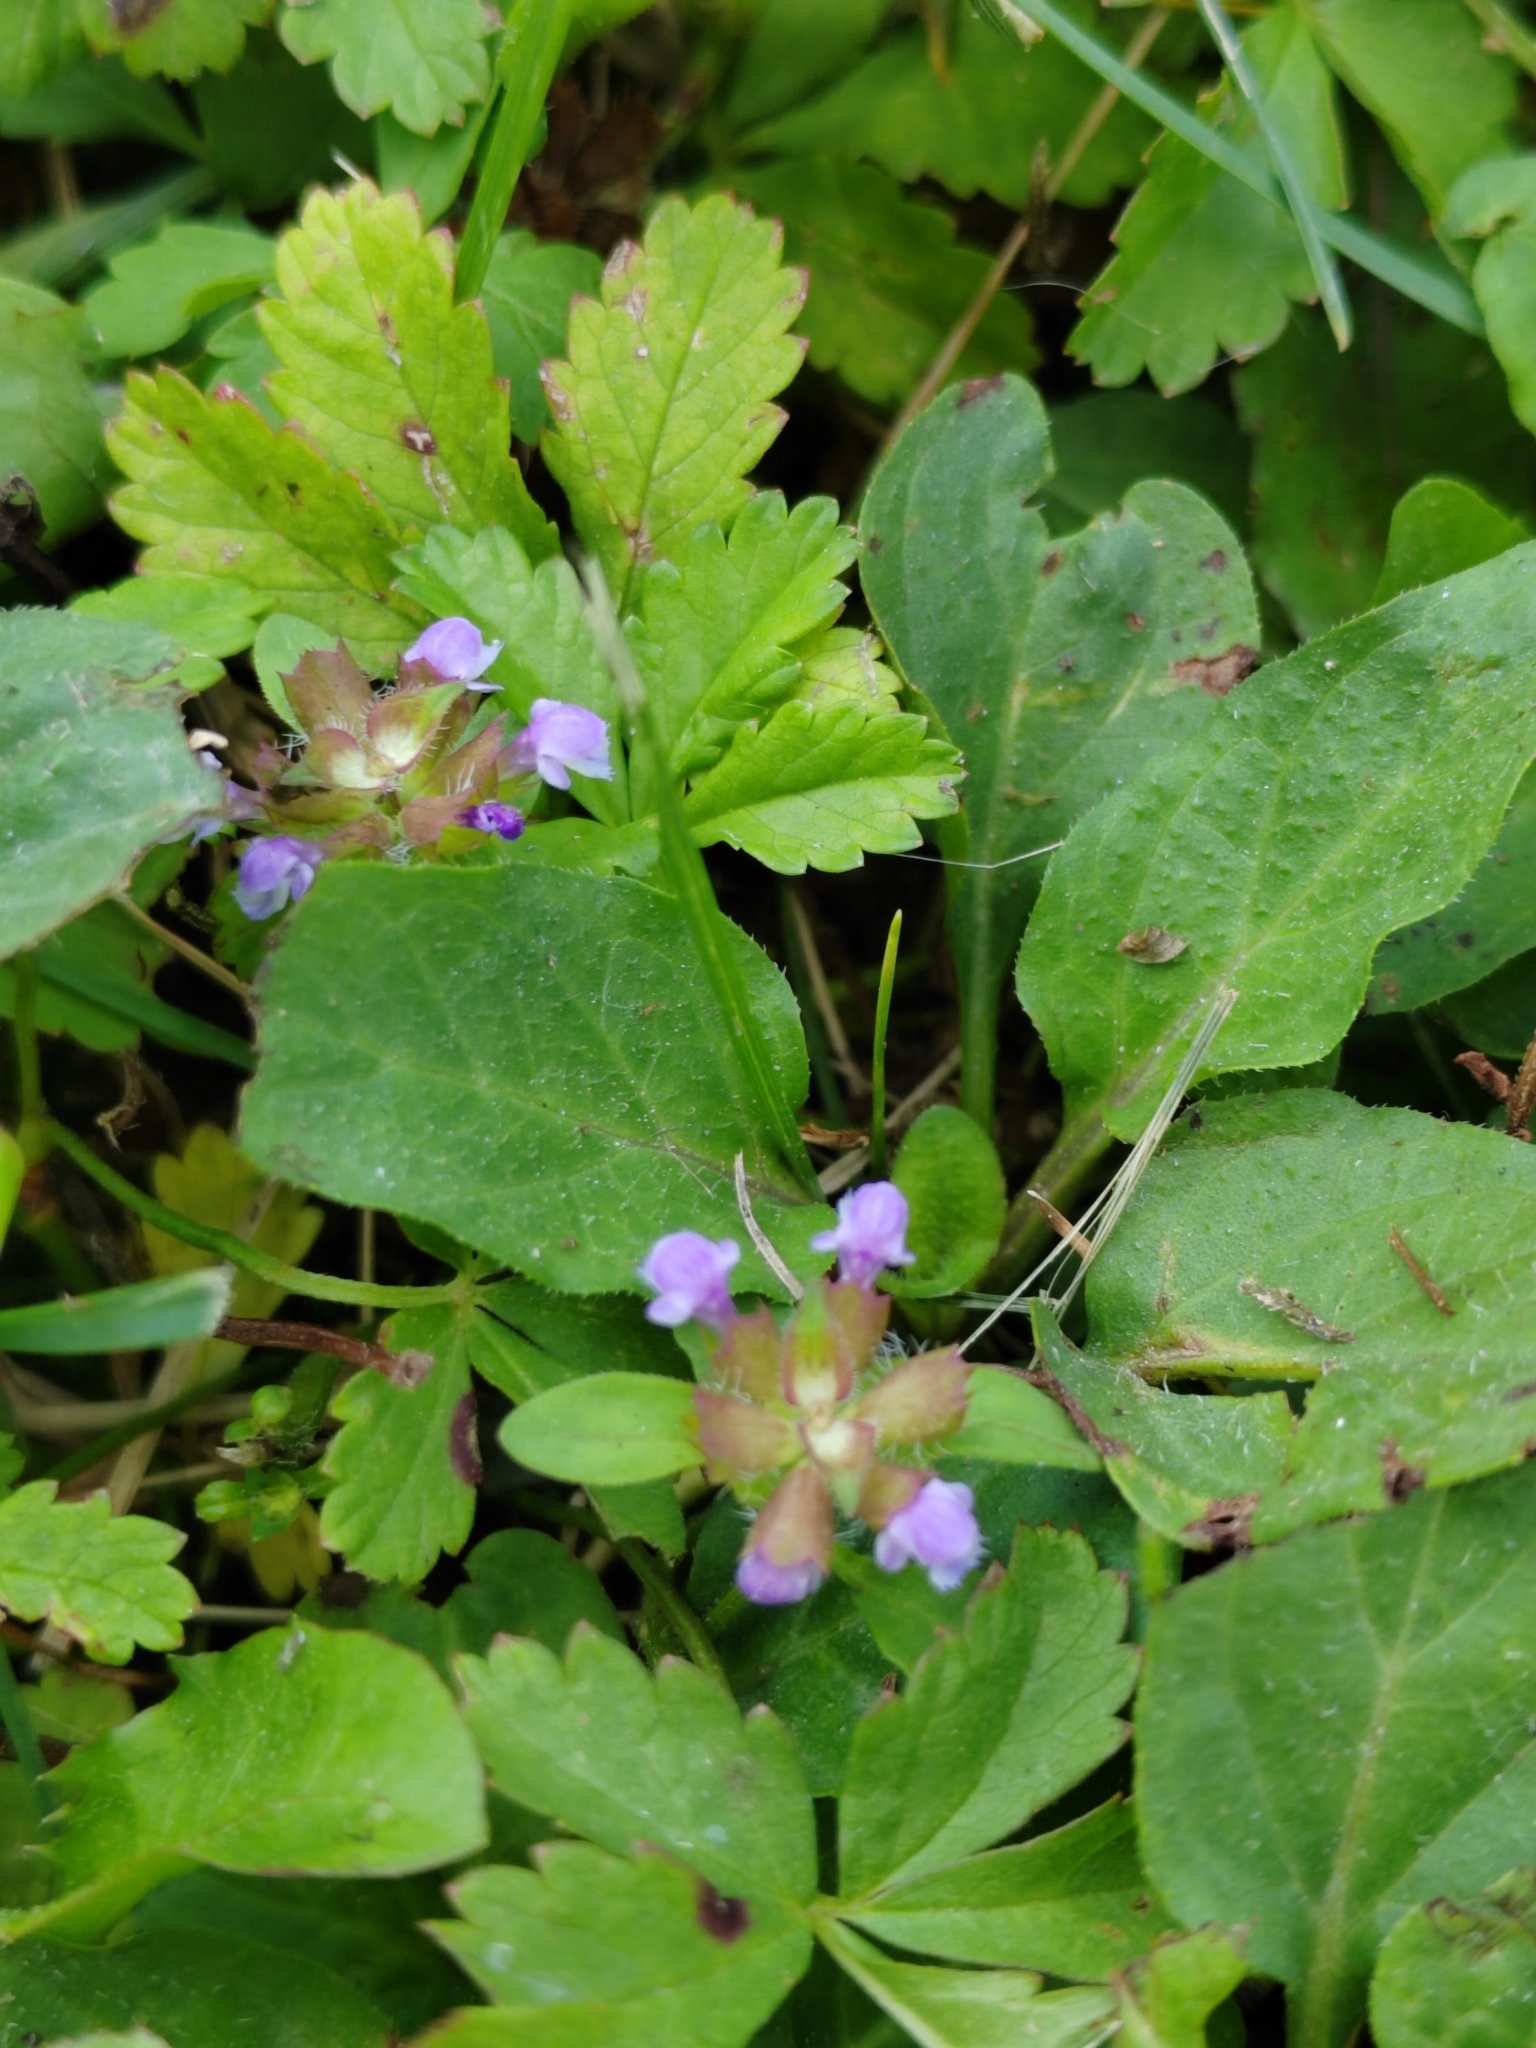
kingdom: Plantae
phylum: Tracheophyta
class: Magnoliopsida
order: Lamiales
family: Lamiaceae
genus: Prunella
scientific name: Prunella vulgaris
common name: Heal-all
